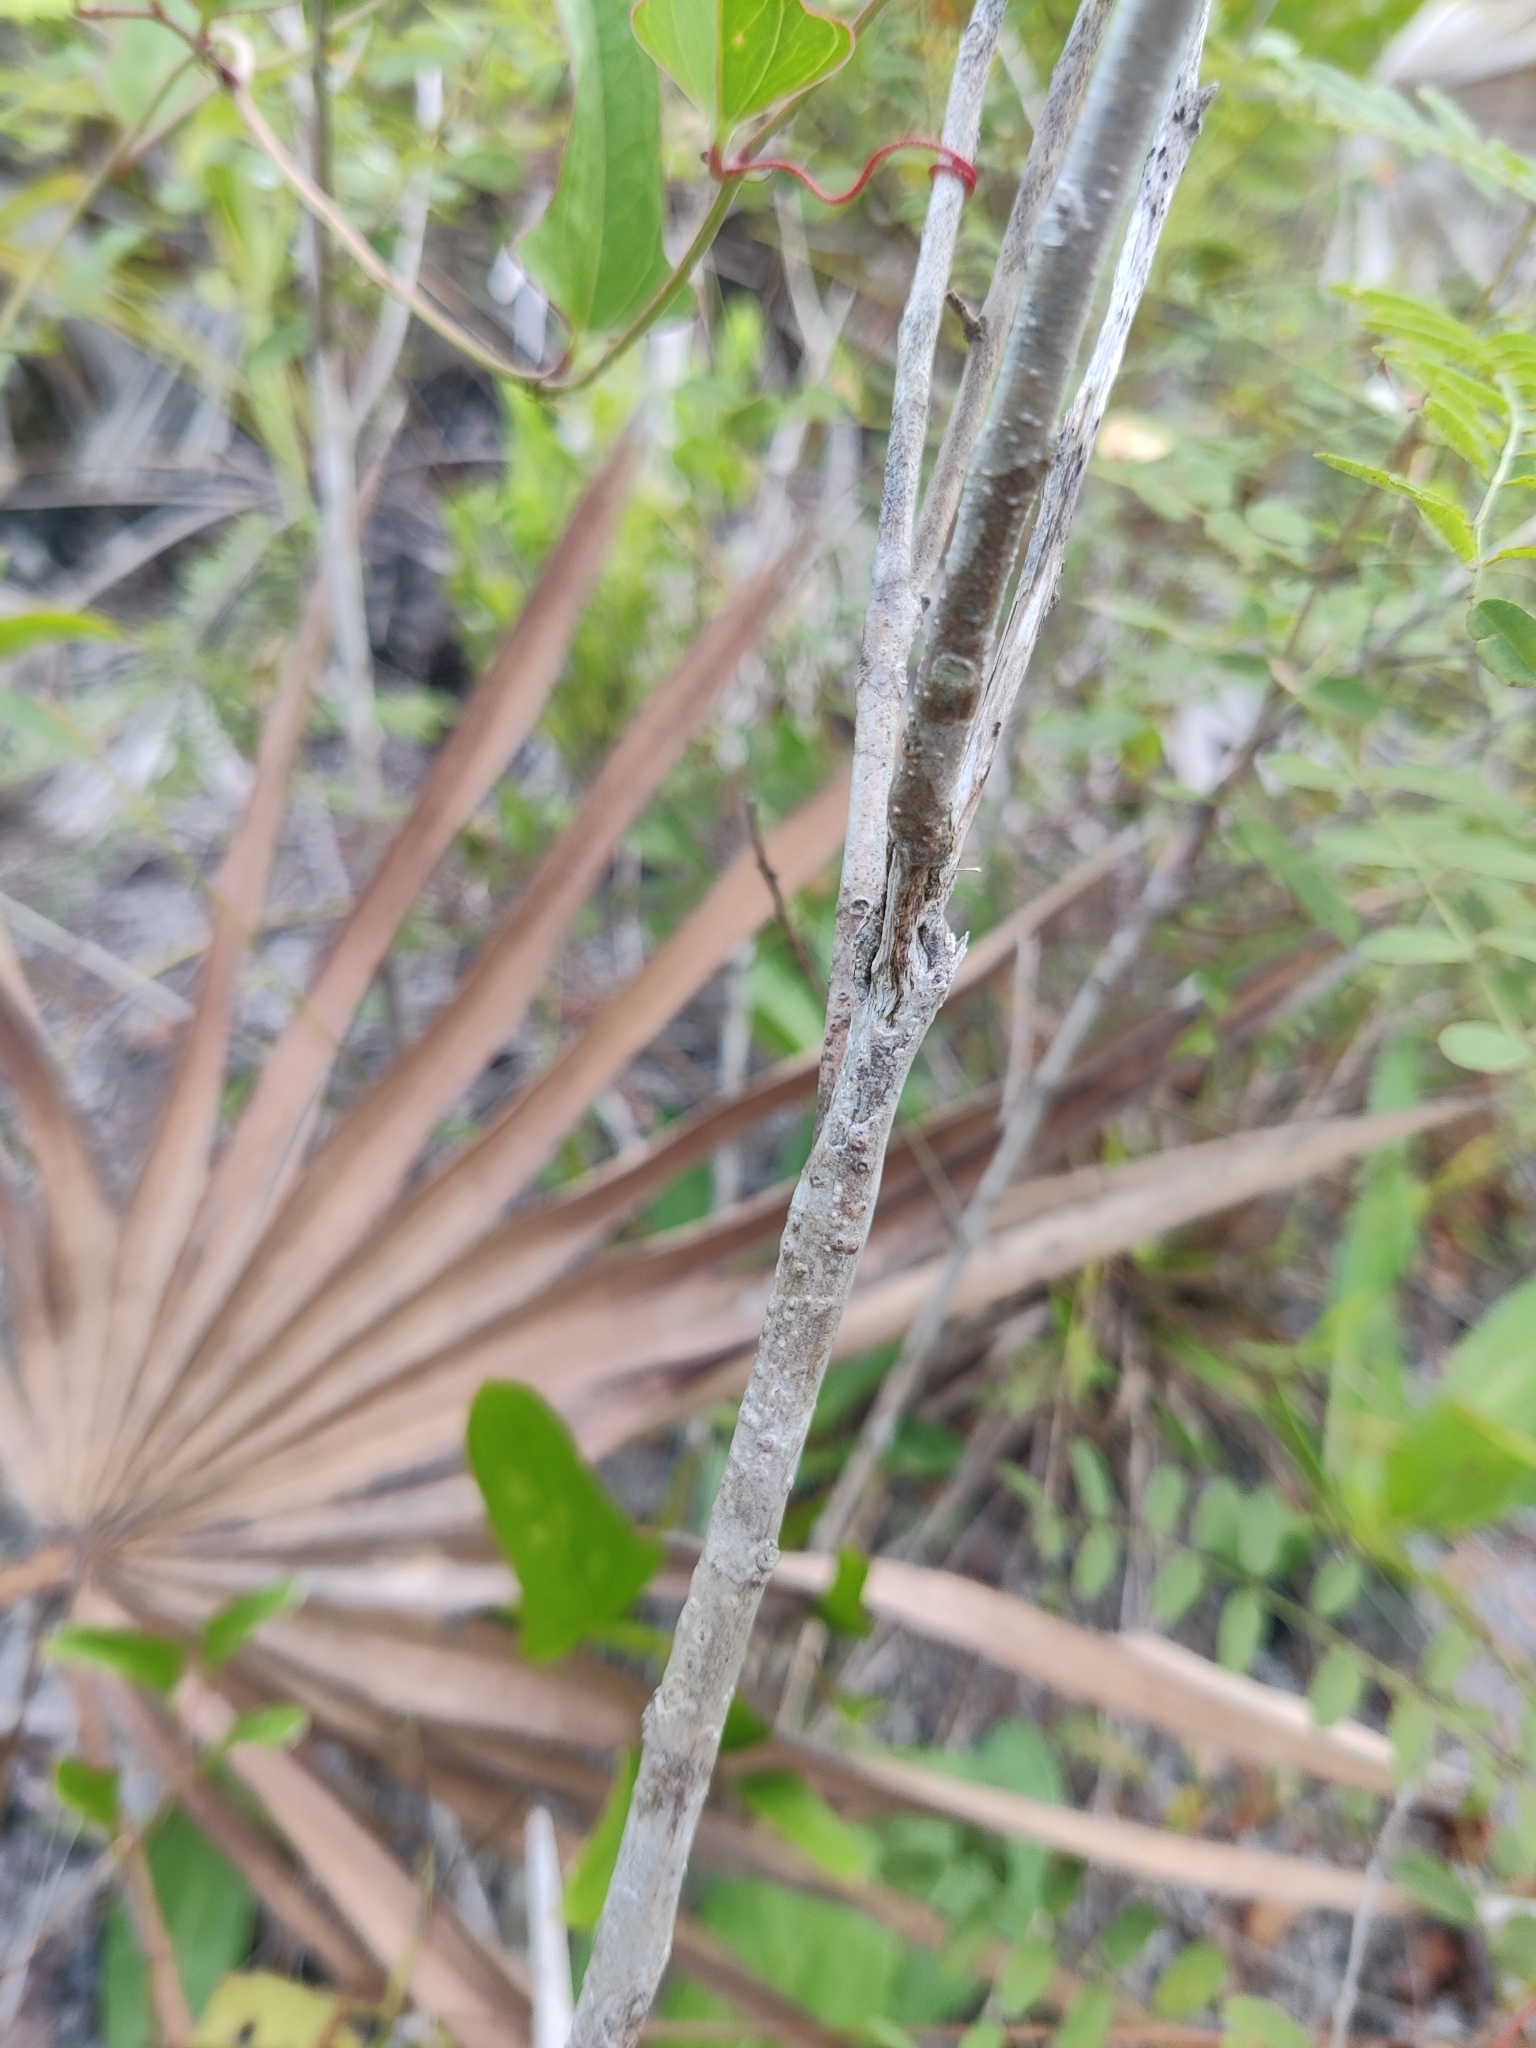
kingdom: Plantae
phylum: Tracheophyta
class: Magnoliopsida
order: Fabales
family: Fabaceae
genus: Amorpha
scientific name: Amorpha herbacea
